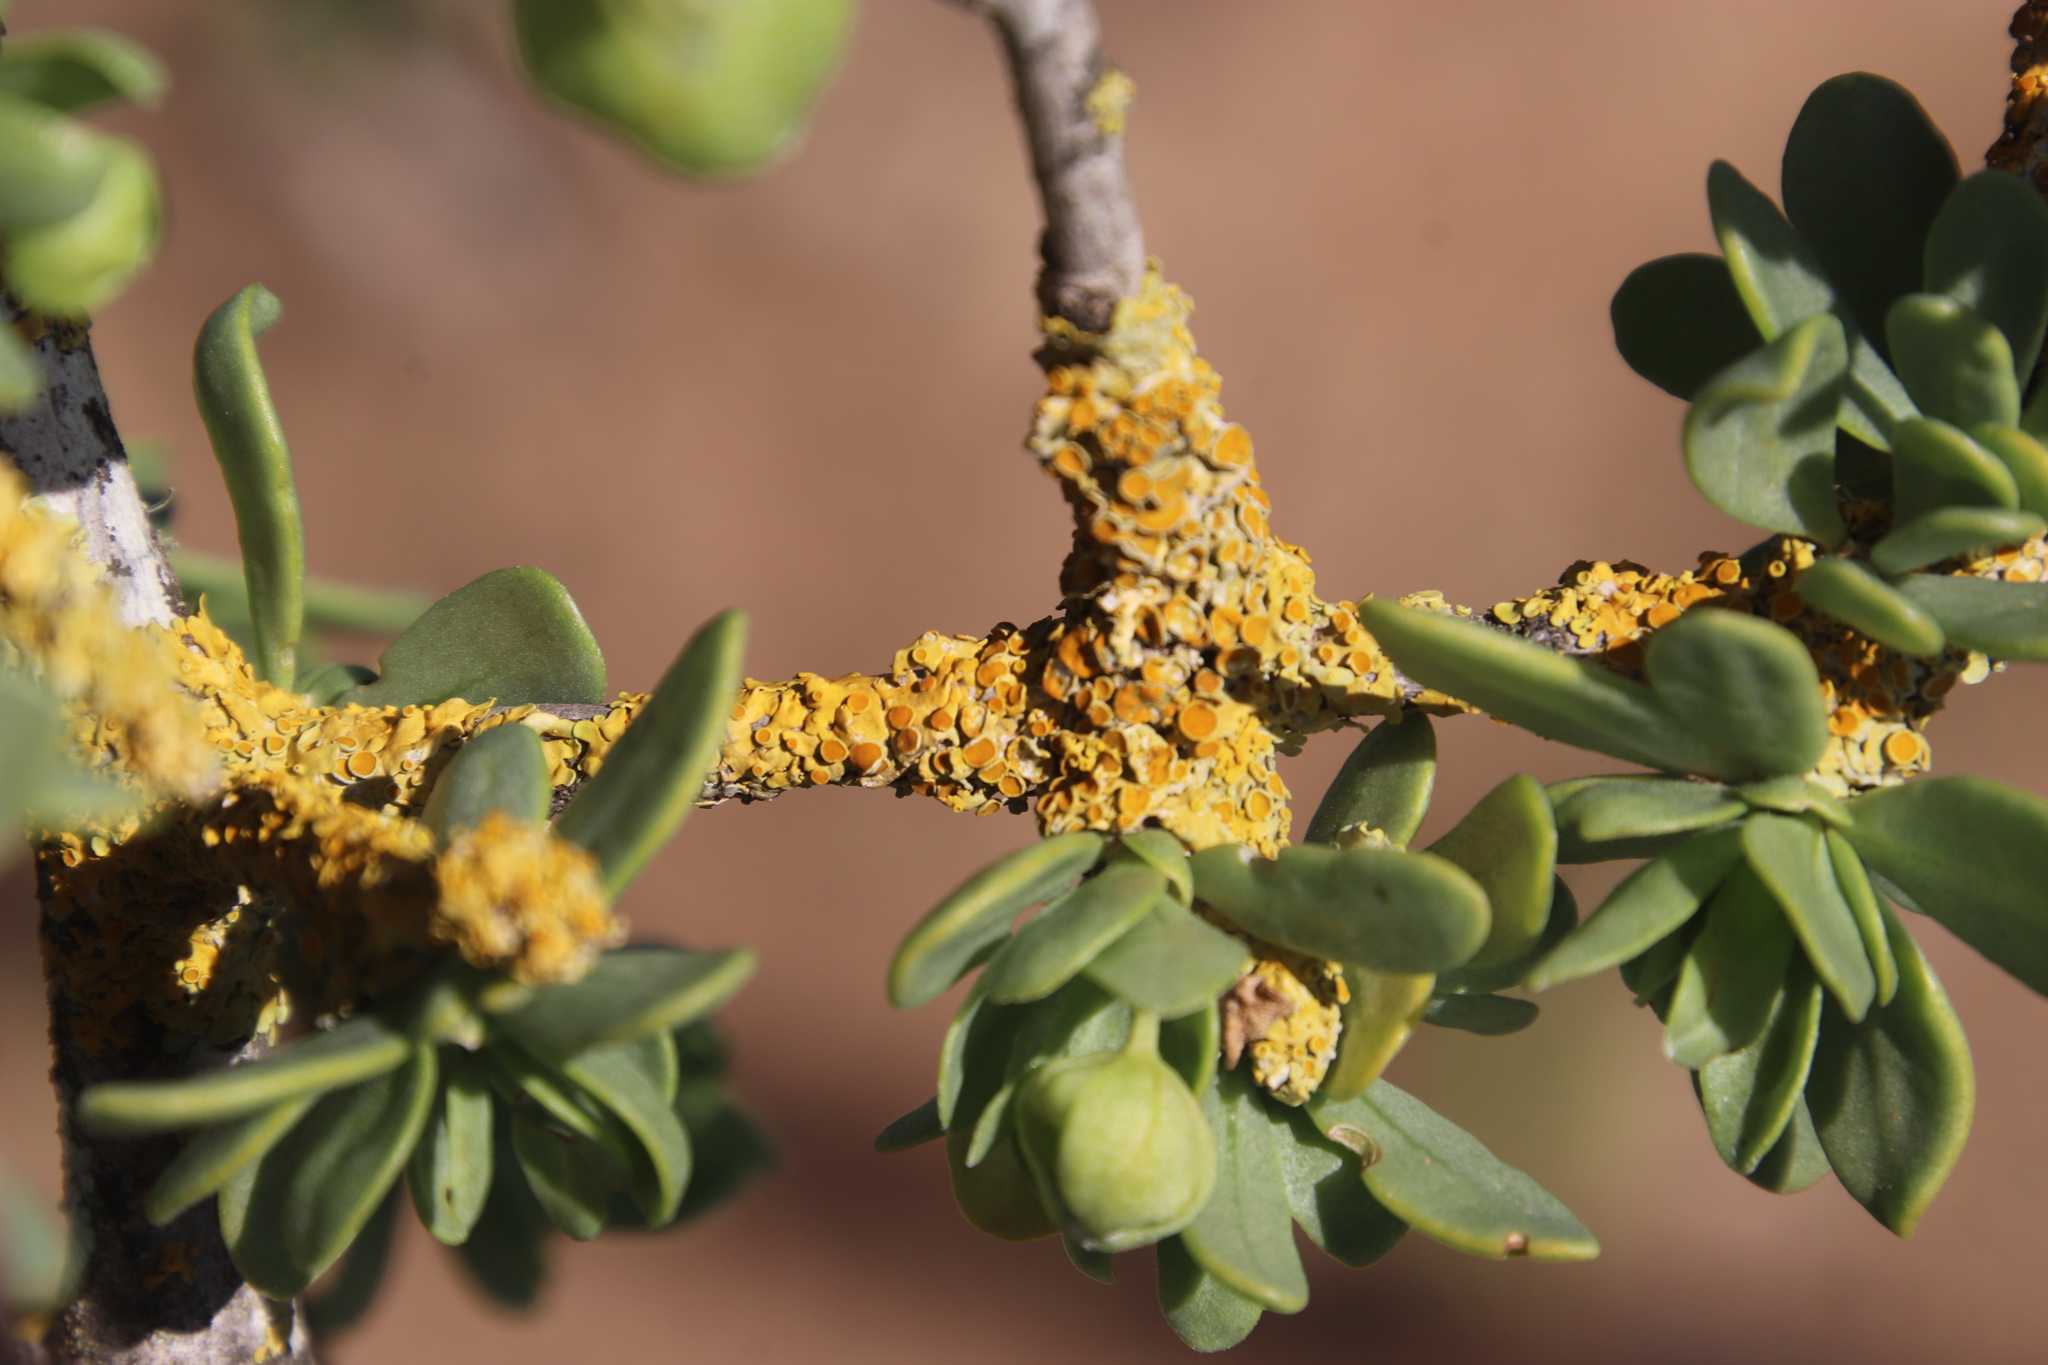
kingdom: Fungi
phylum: Ascomycota
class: Lecanoromycetes
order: Teloschistales
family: Teloschistaceae
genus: Xanthoria
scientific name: Xanthoria parietina
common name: Common orange lichen
